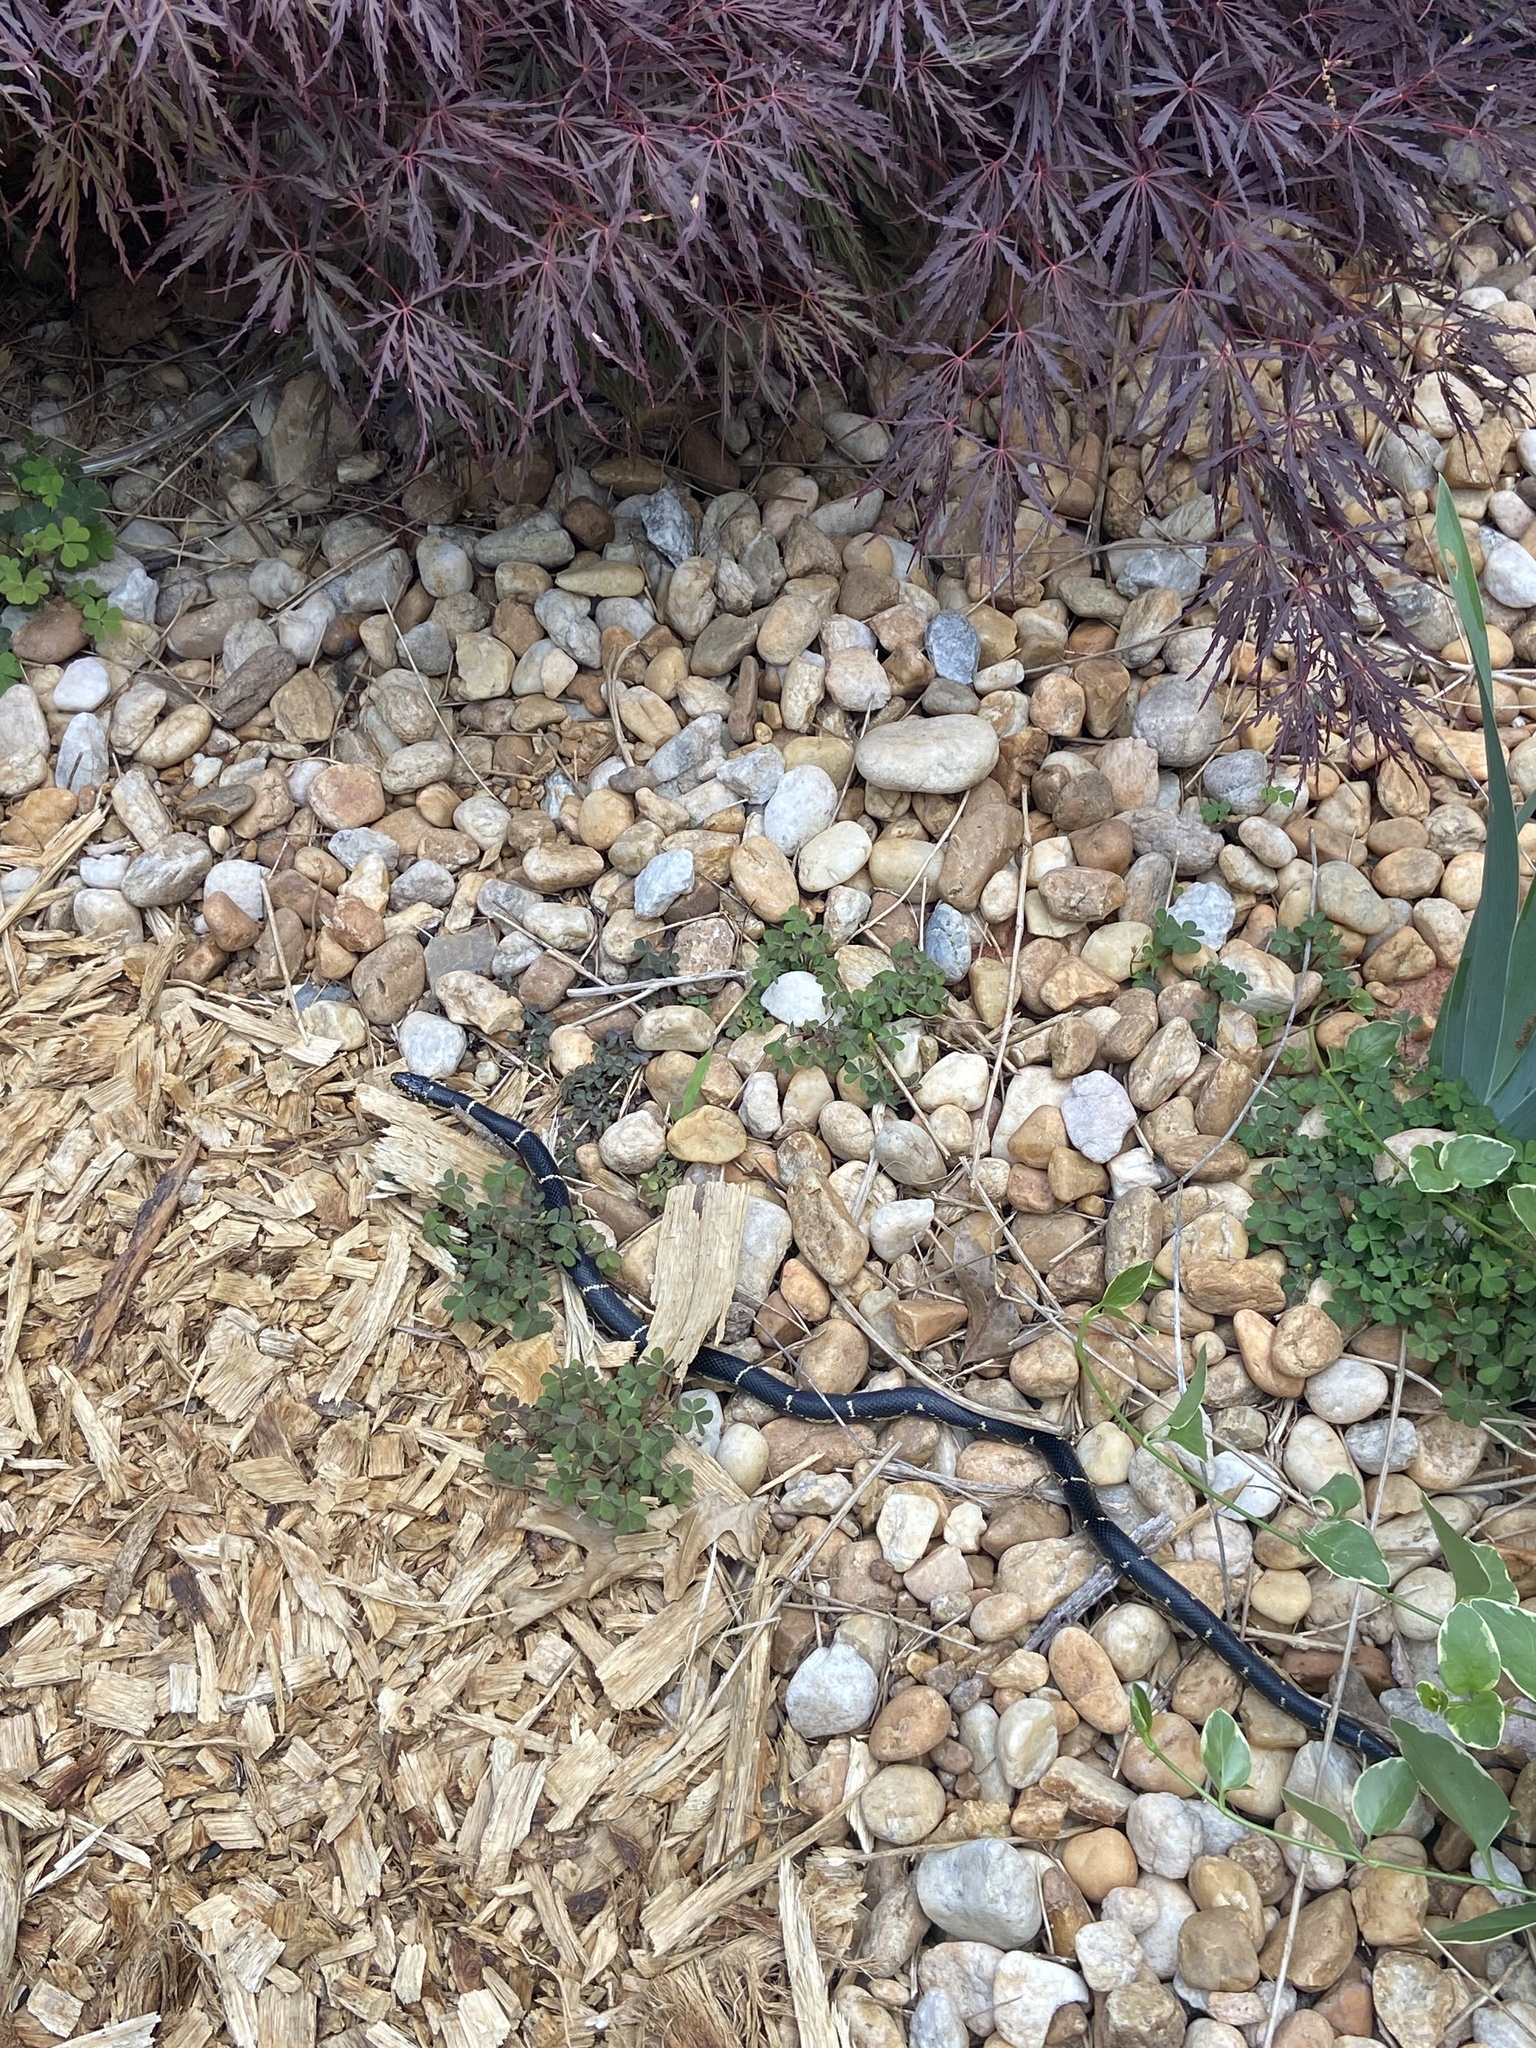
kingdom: Animalia
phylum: Chordata
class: Squamata
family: Colubridae
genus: Lampropeltis
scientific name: Lampropeltis getula
